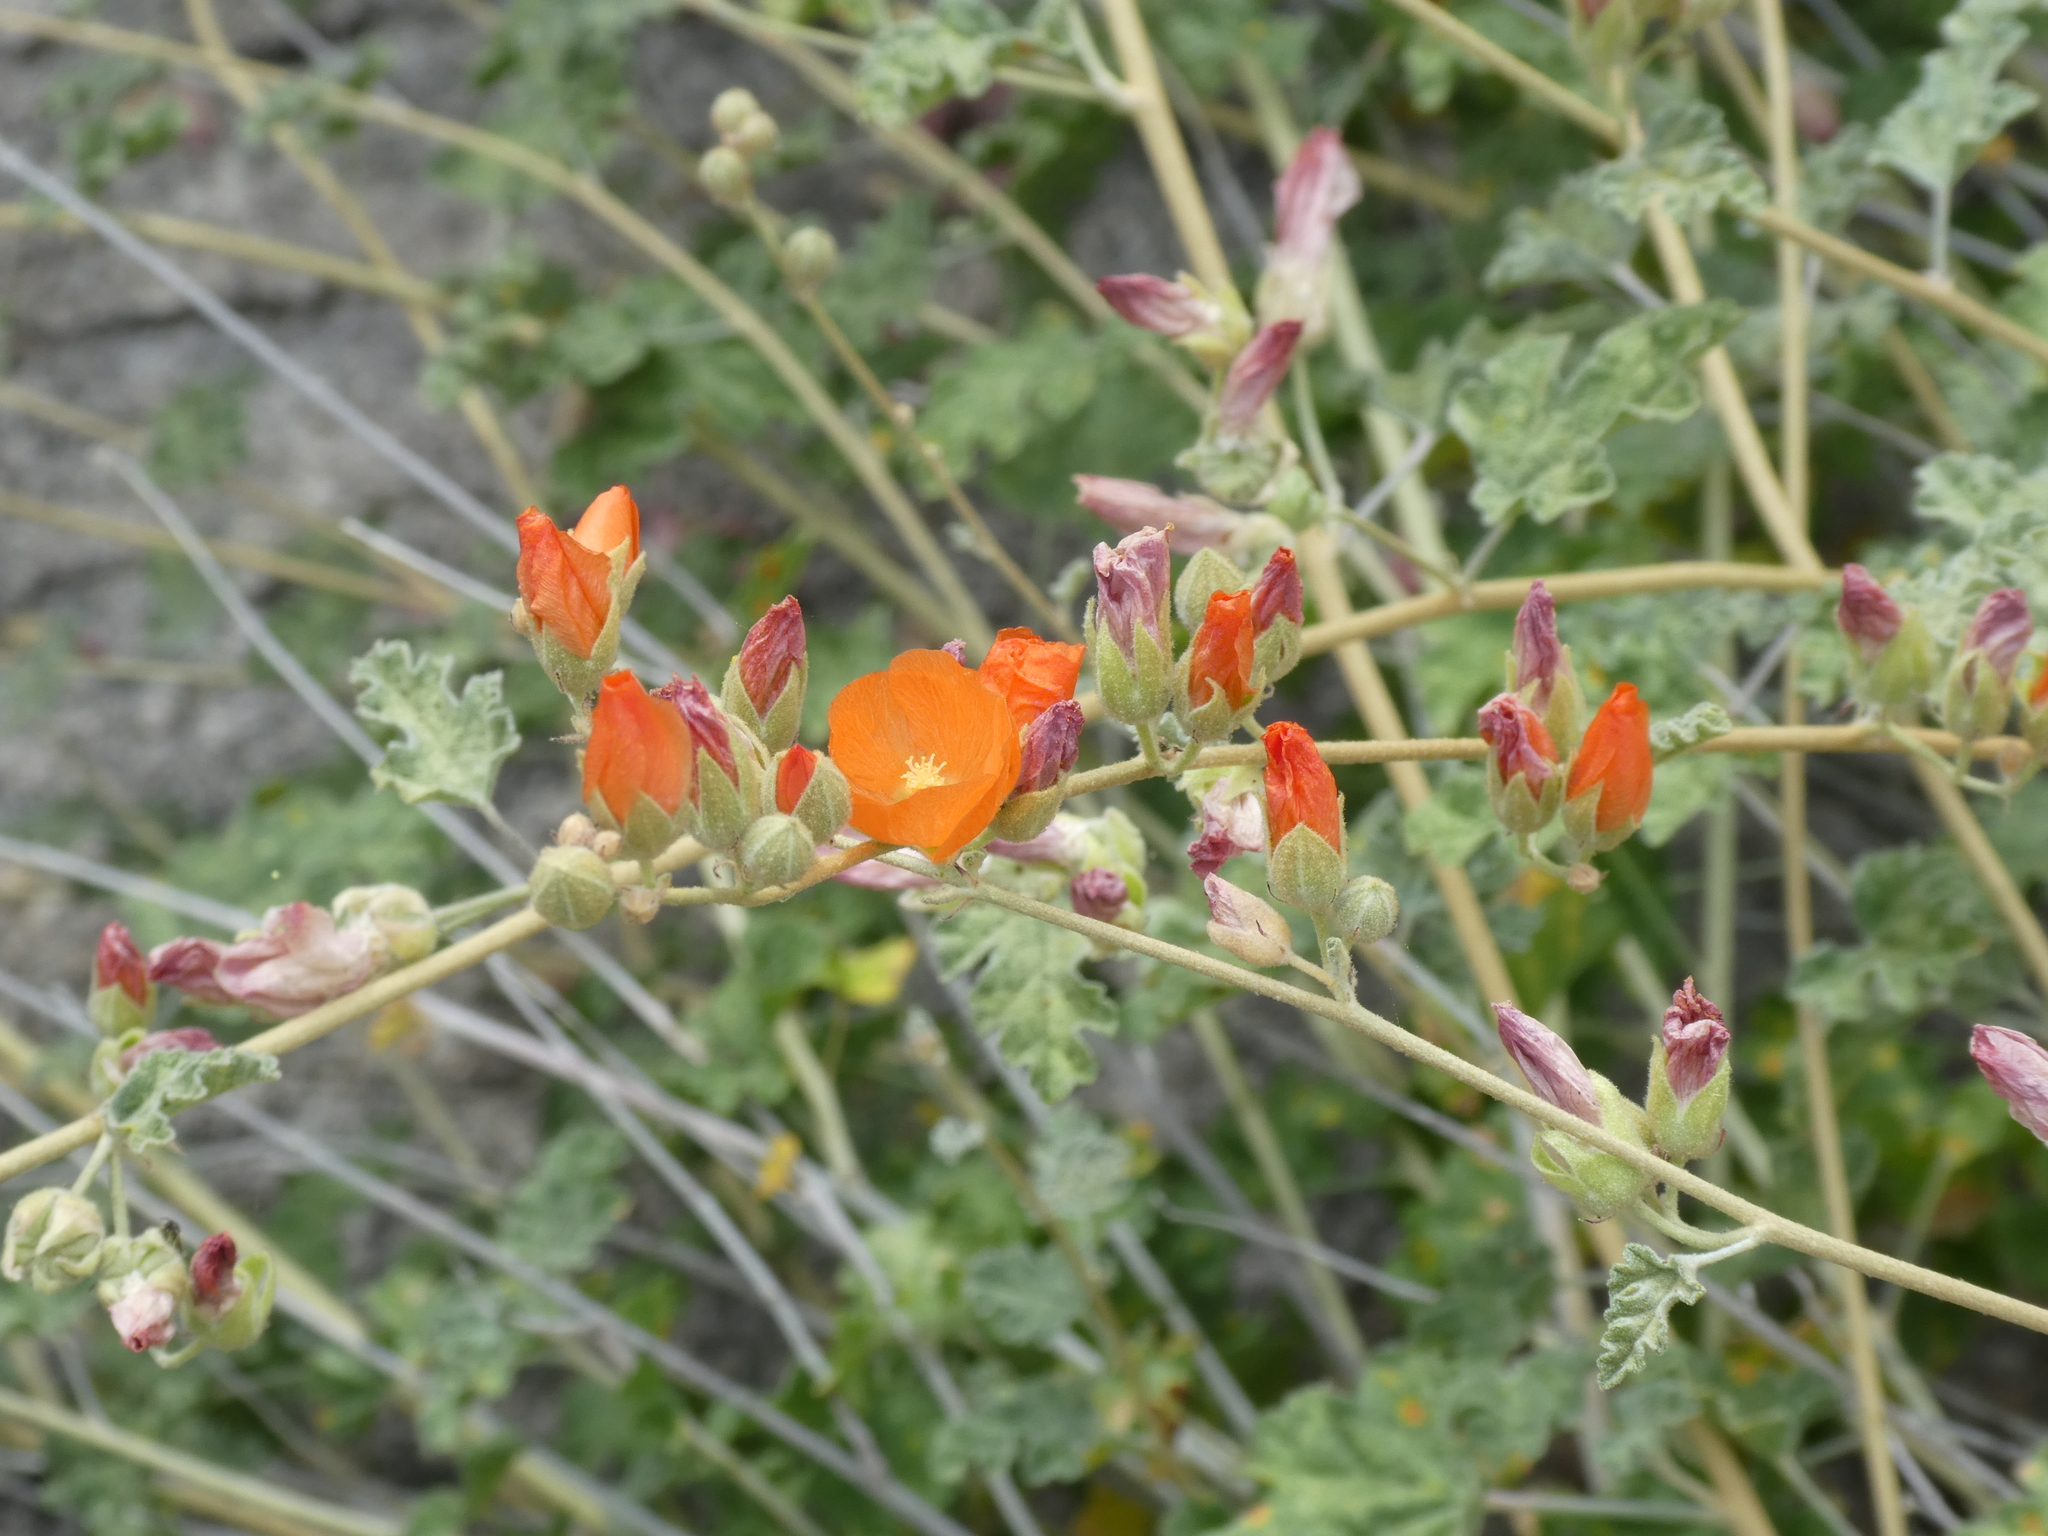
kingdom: Plantae
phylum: Tracheophyta
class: Magnoliopsida
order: Malvales
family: Malvaceae
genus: Sphaeralcea
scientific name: Sphaeralcea ambigua
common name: Apricot globe-mallow
